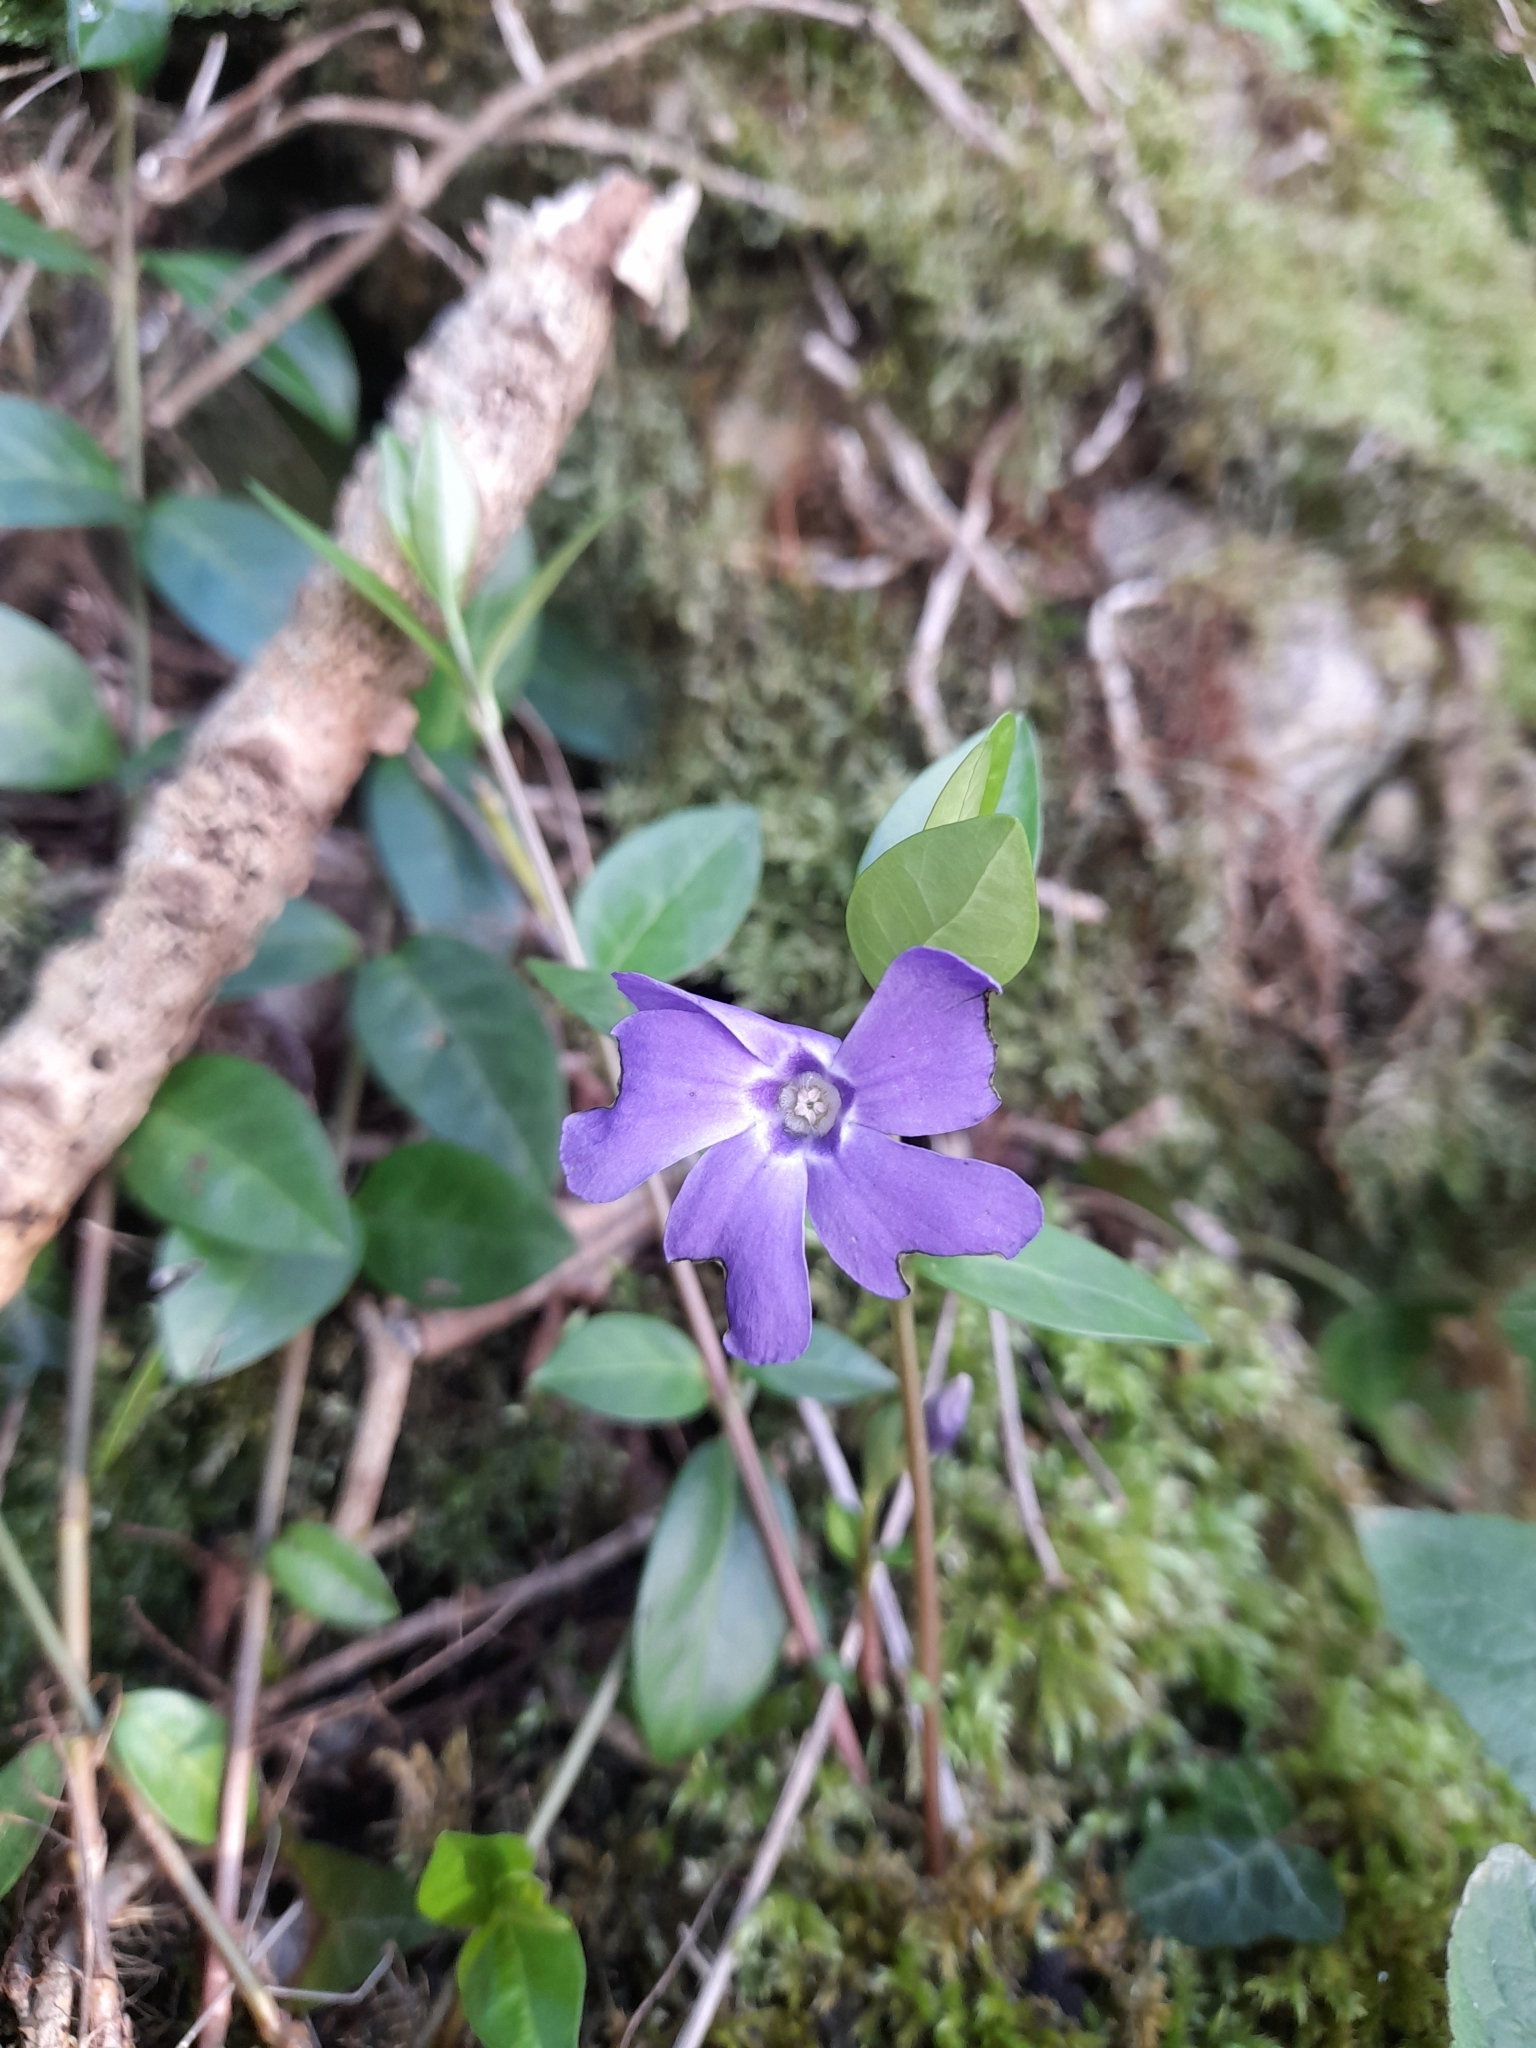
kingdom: Plantae
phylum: Tracheophyta
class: Magnoliopsida
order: Gentianales
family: Apocynaceae
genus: Vinca
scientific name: Vinca minor
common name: Lesser periwinkle
